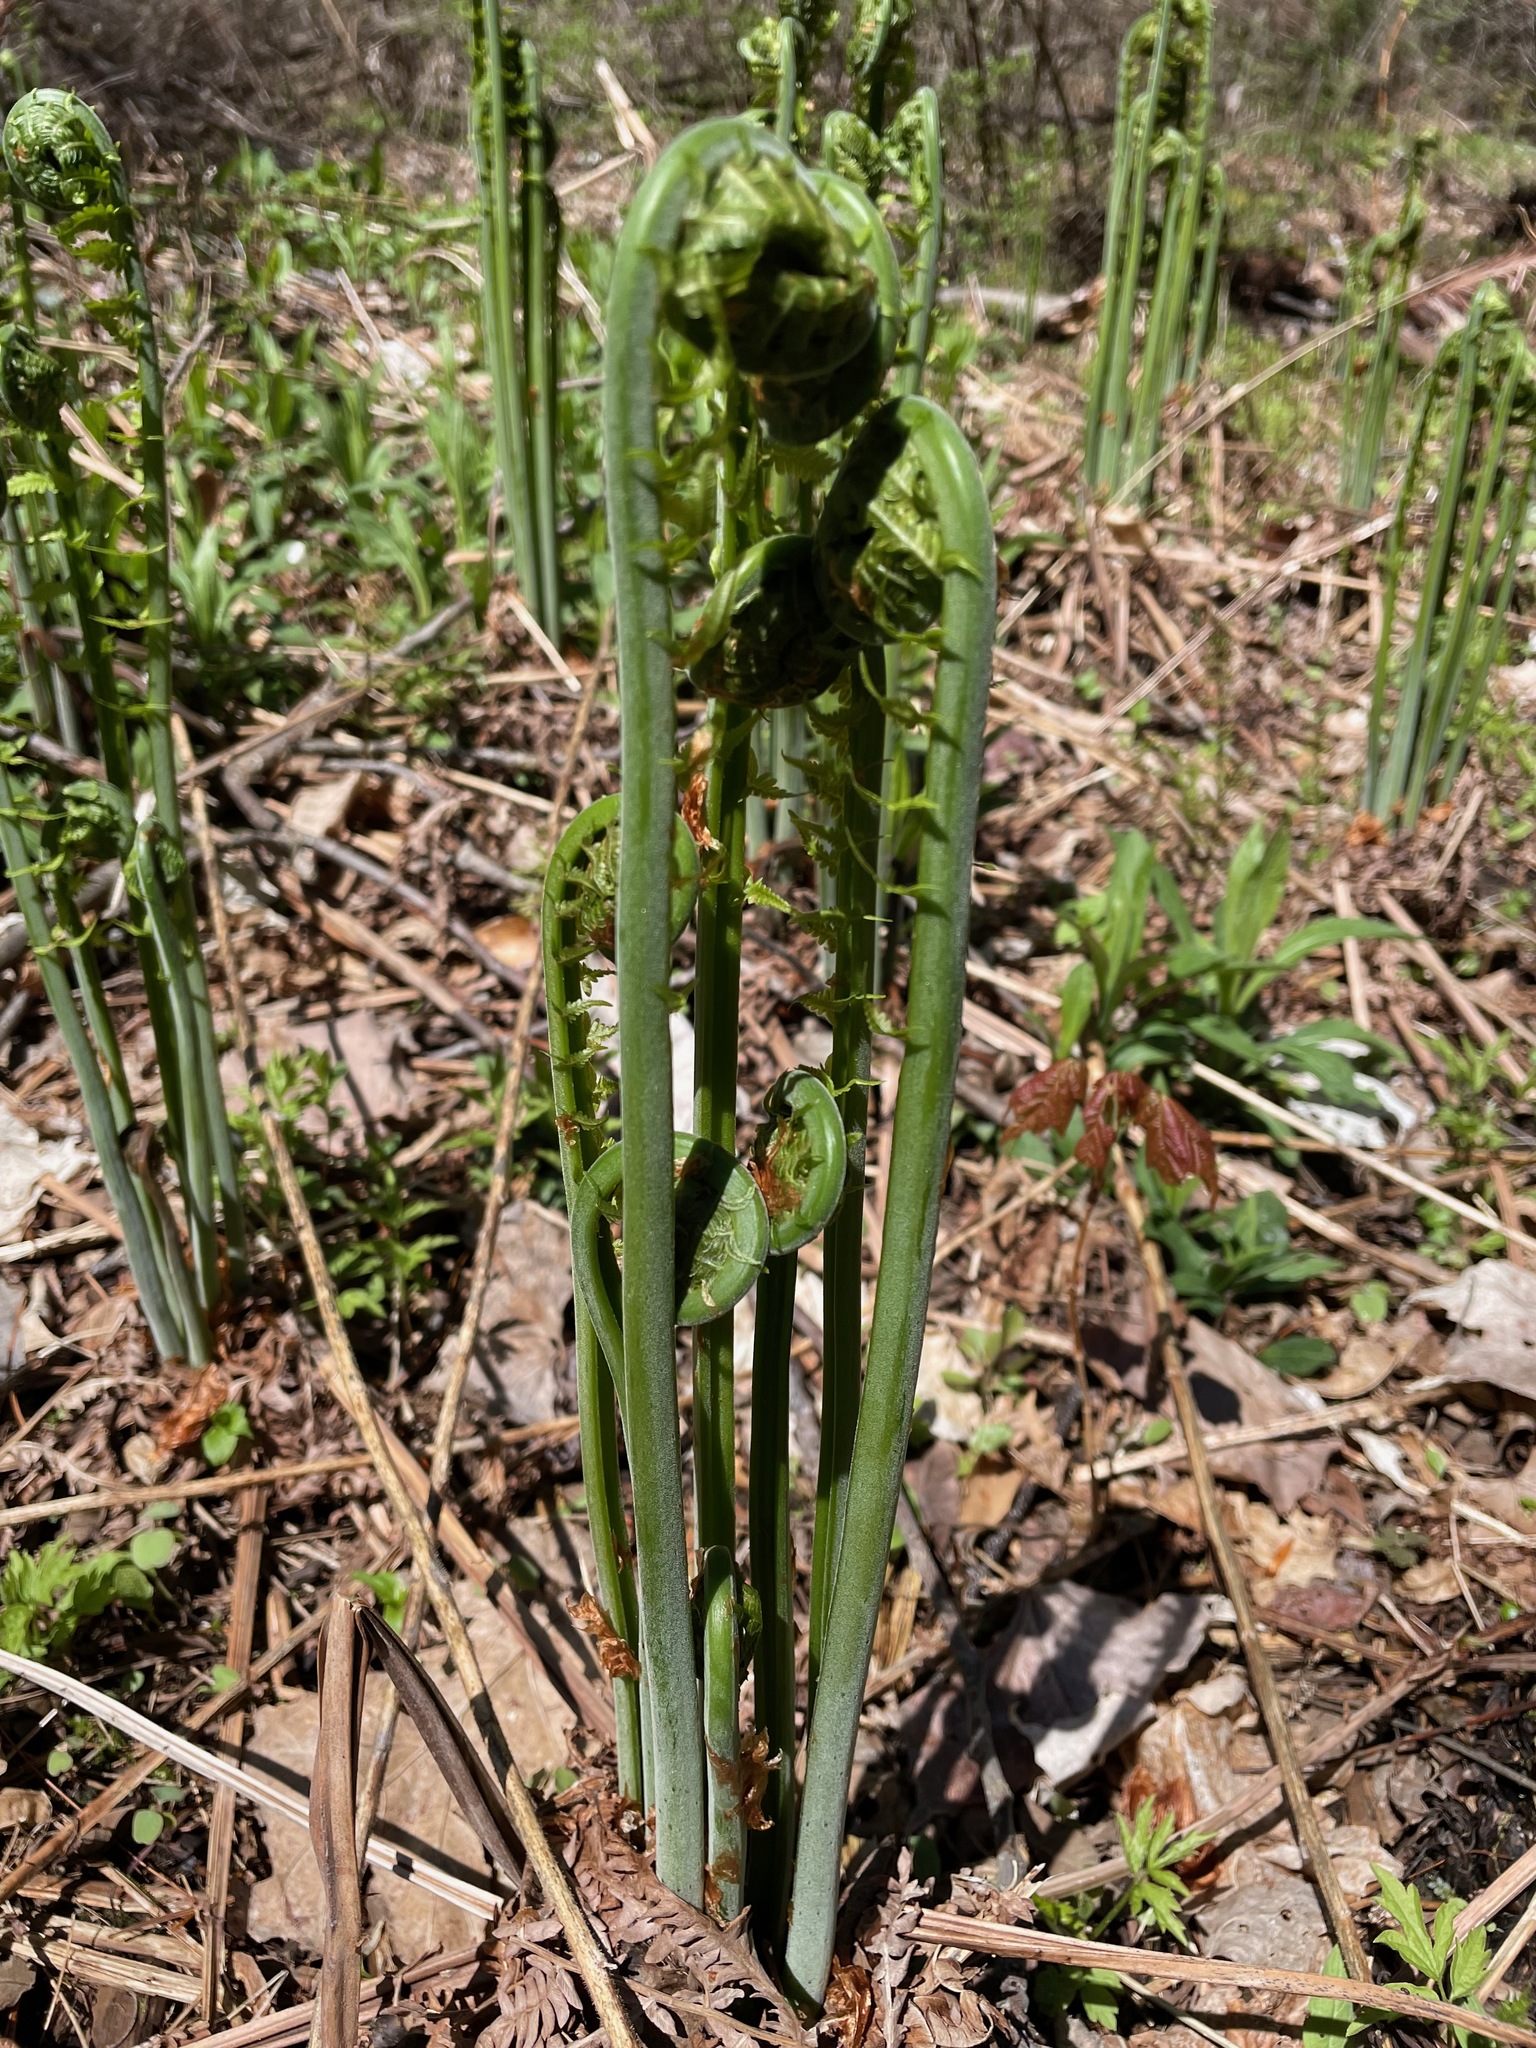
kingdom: Plantae
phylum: Tracheophyta
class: Polypodiopsida
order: Polypodiales
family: Onocleaceae
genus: Matteuccia
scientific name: Matteuccia struthiopteris
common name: Ostrich fern
